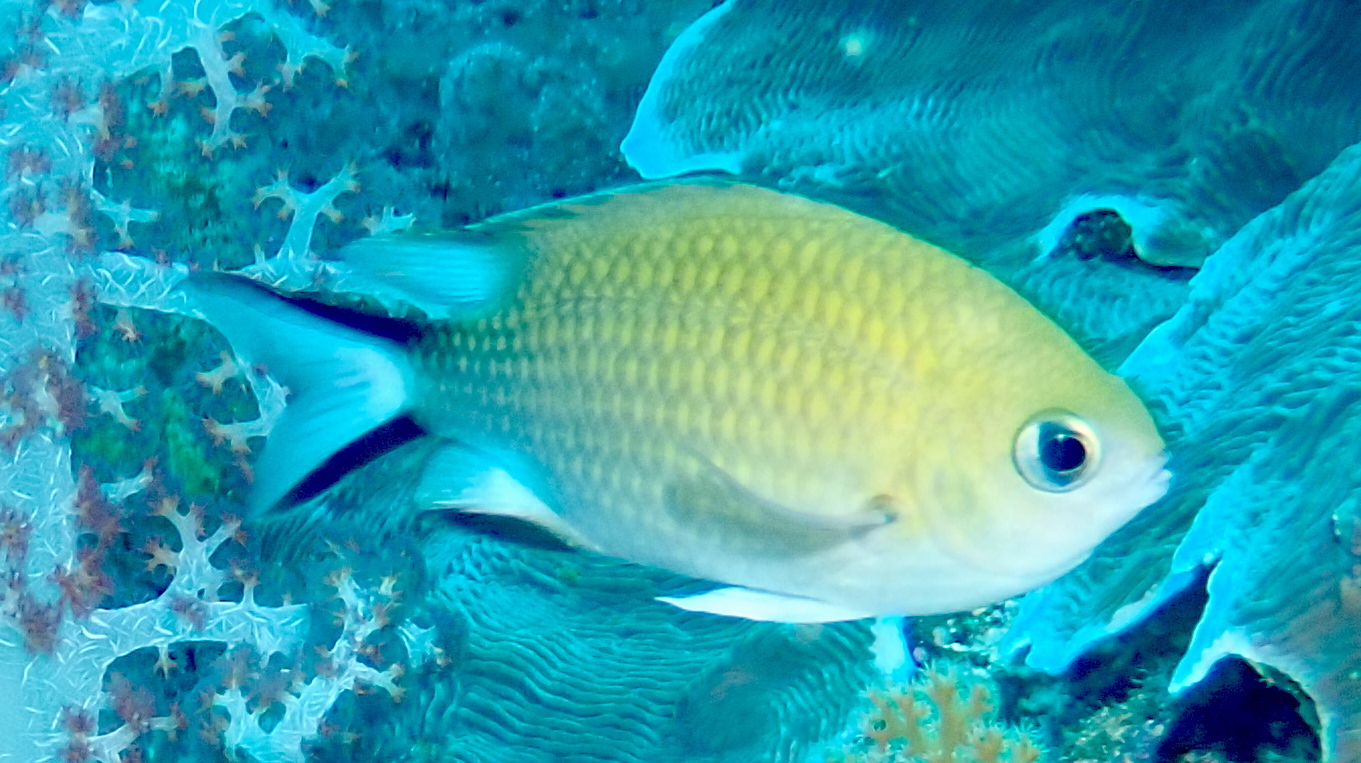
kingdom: Animalia
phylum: Chordata
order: Perciformes
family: Pomacentridae
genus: Chromis
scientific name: Chromis scotochiloptera
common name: Philippines chromis
